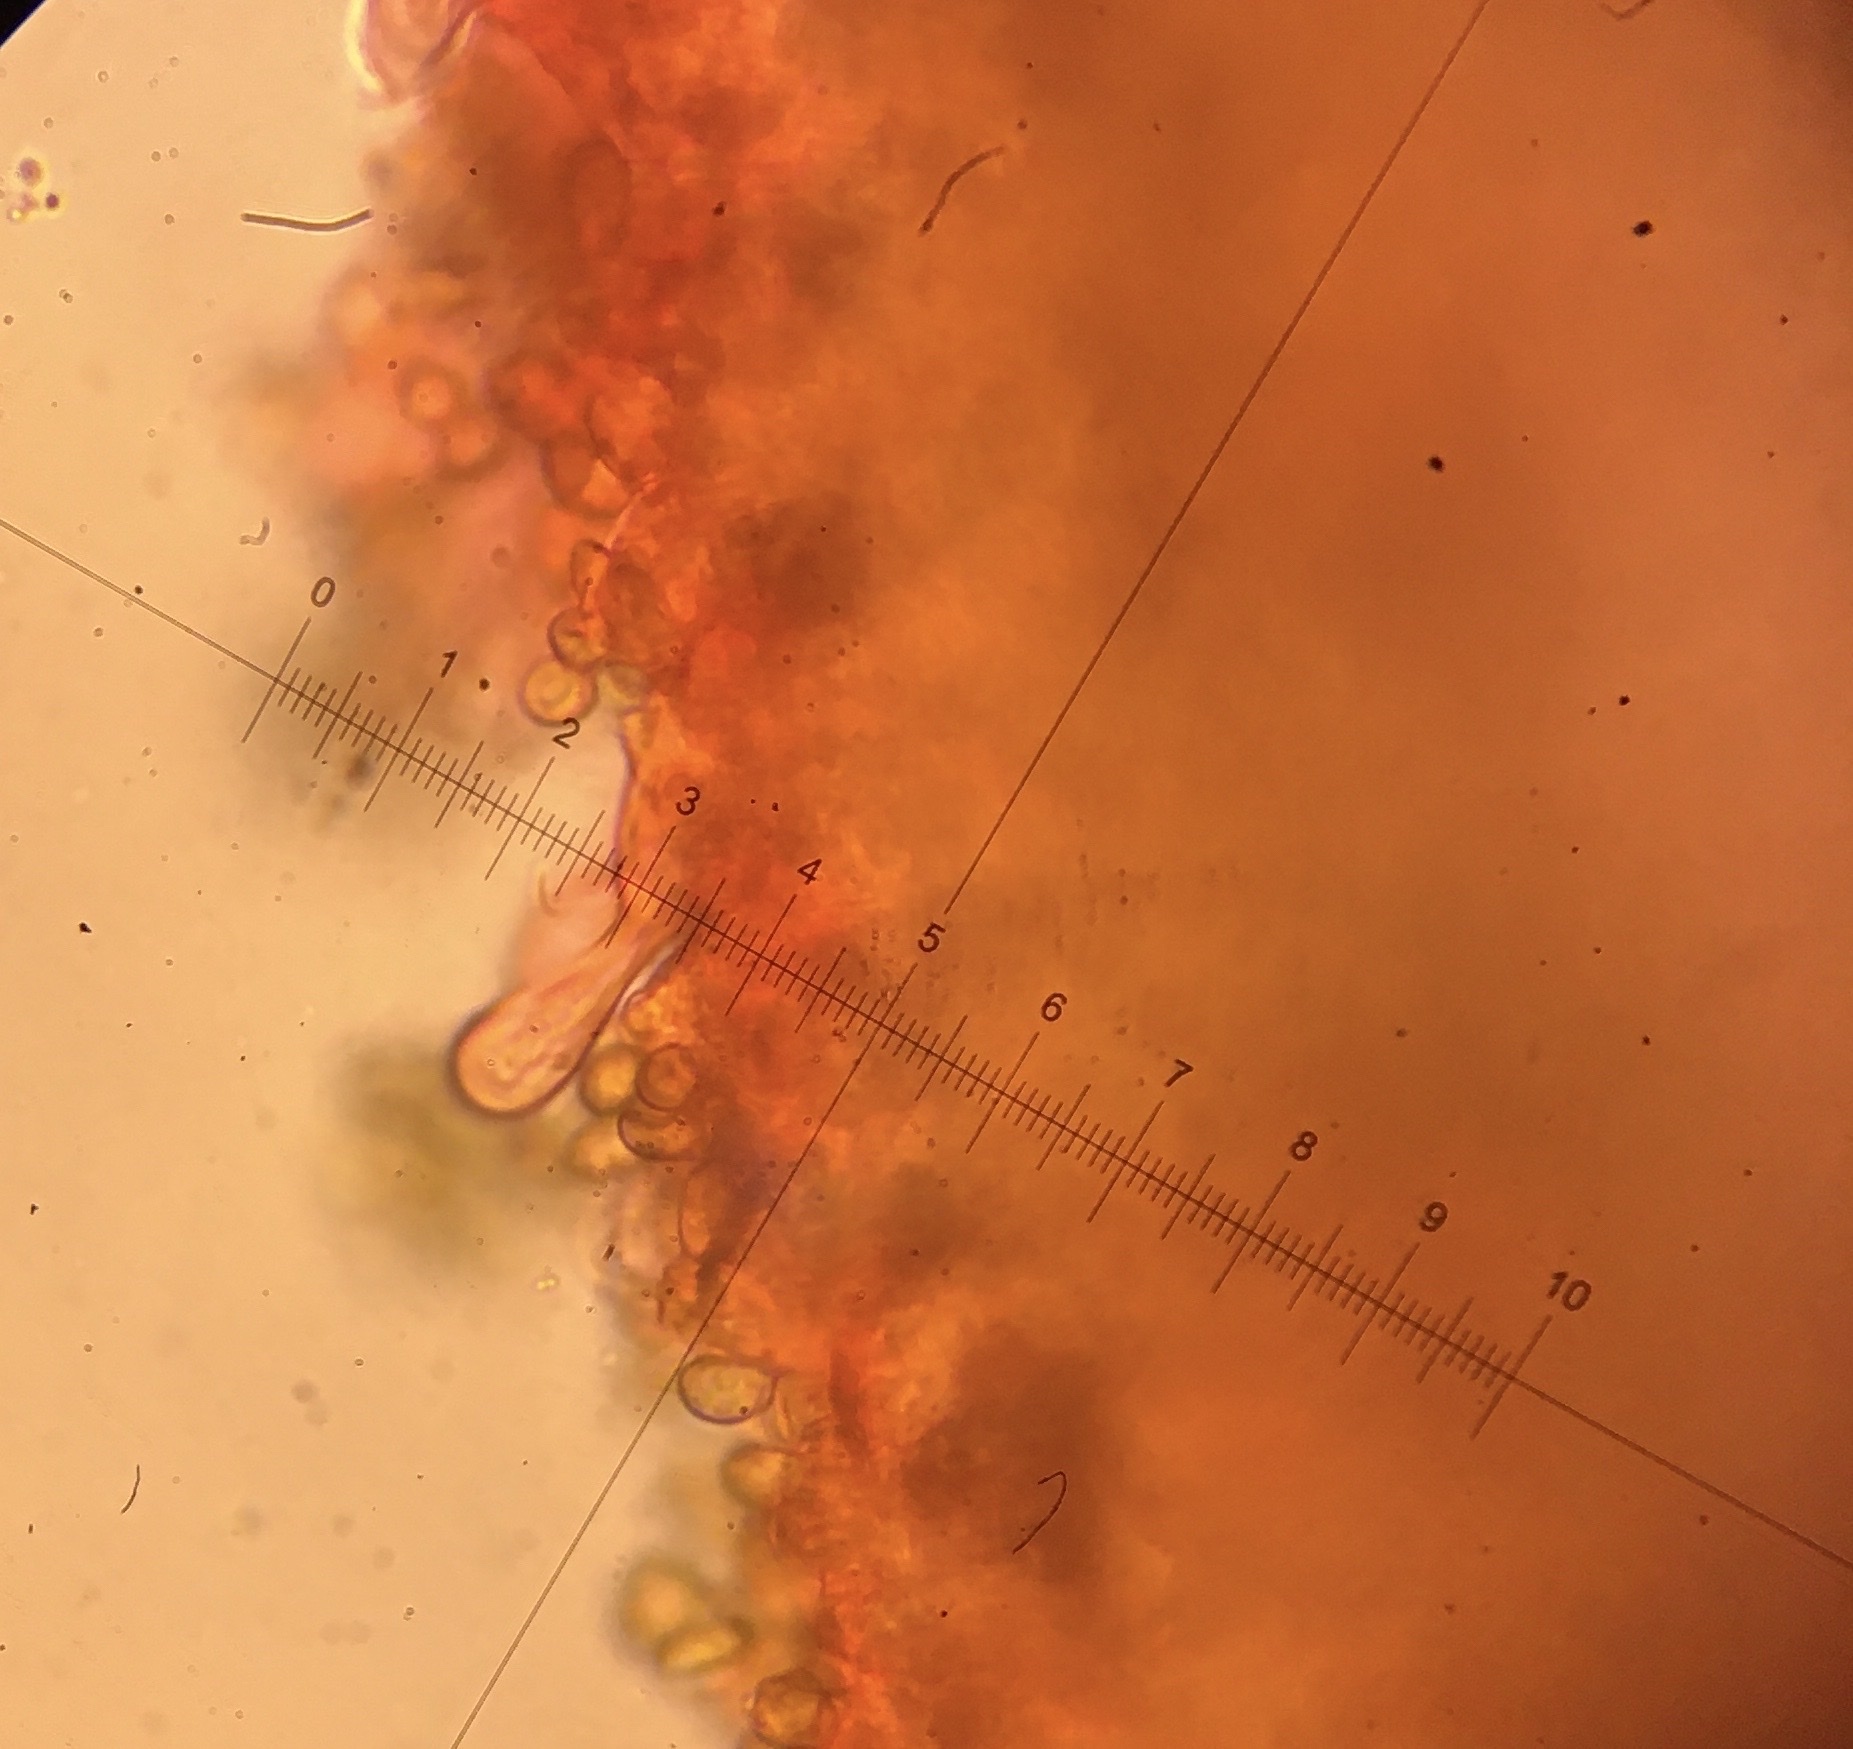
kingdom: Fungi
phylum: Basidiomycota
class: Agaricomycetes
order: Agaricales
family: Inocybaceae
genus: Inocybe
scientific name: Inocybe pallidicremea
